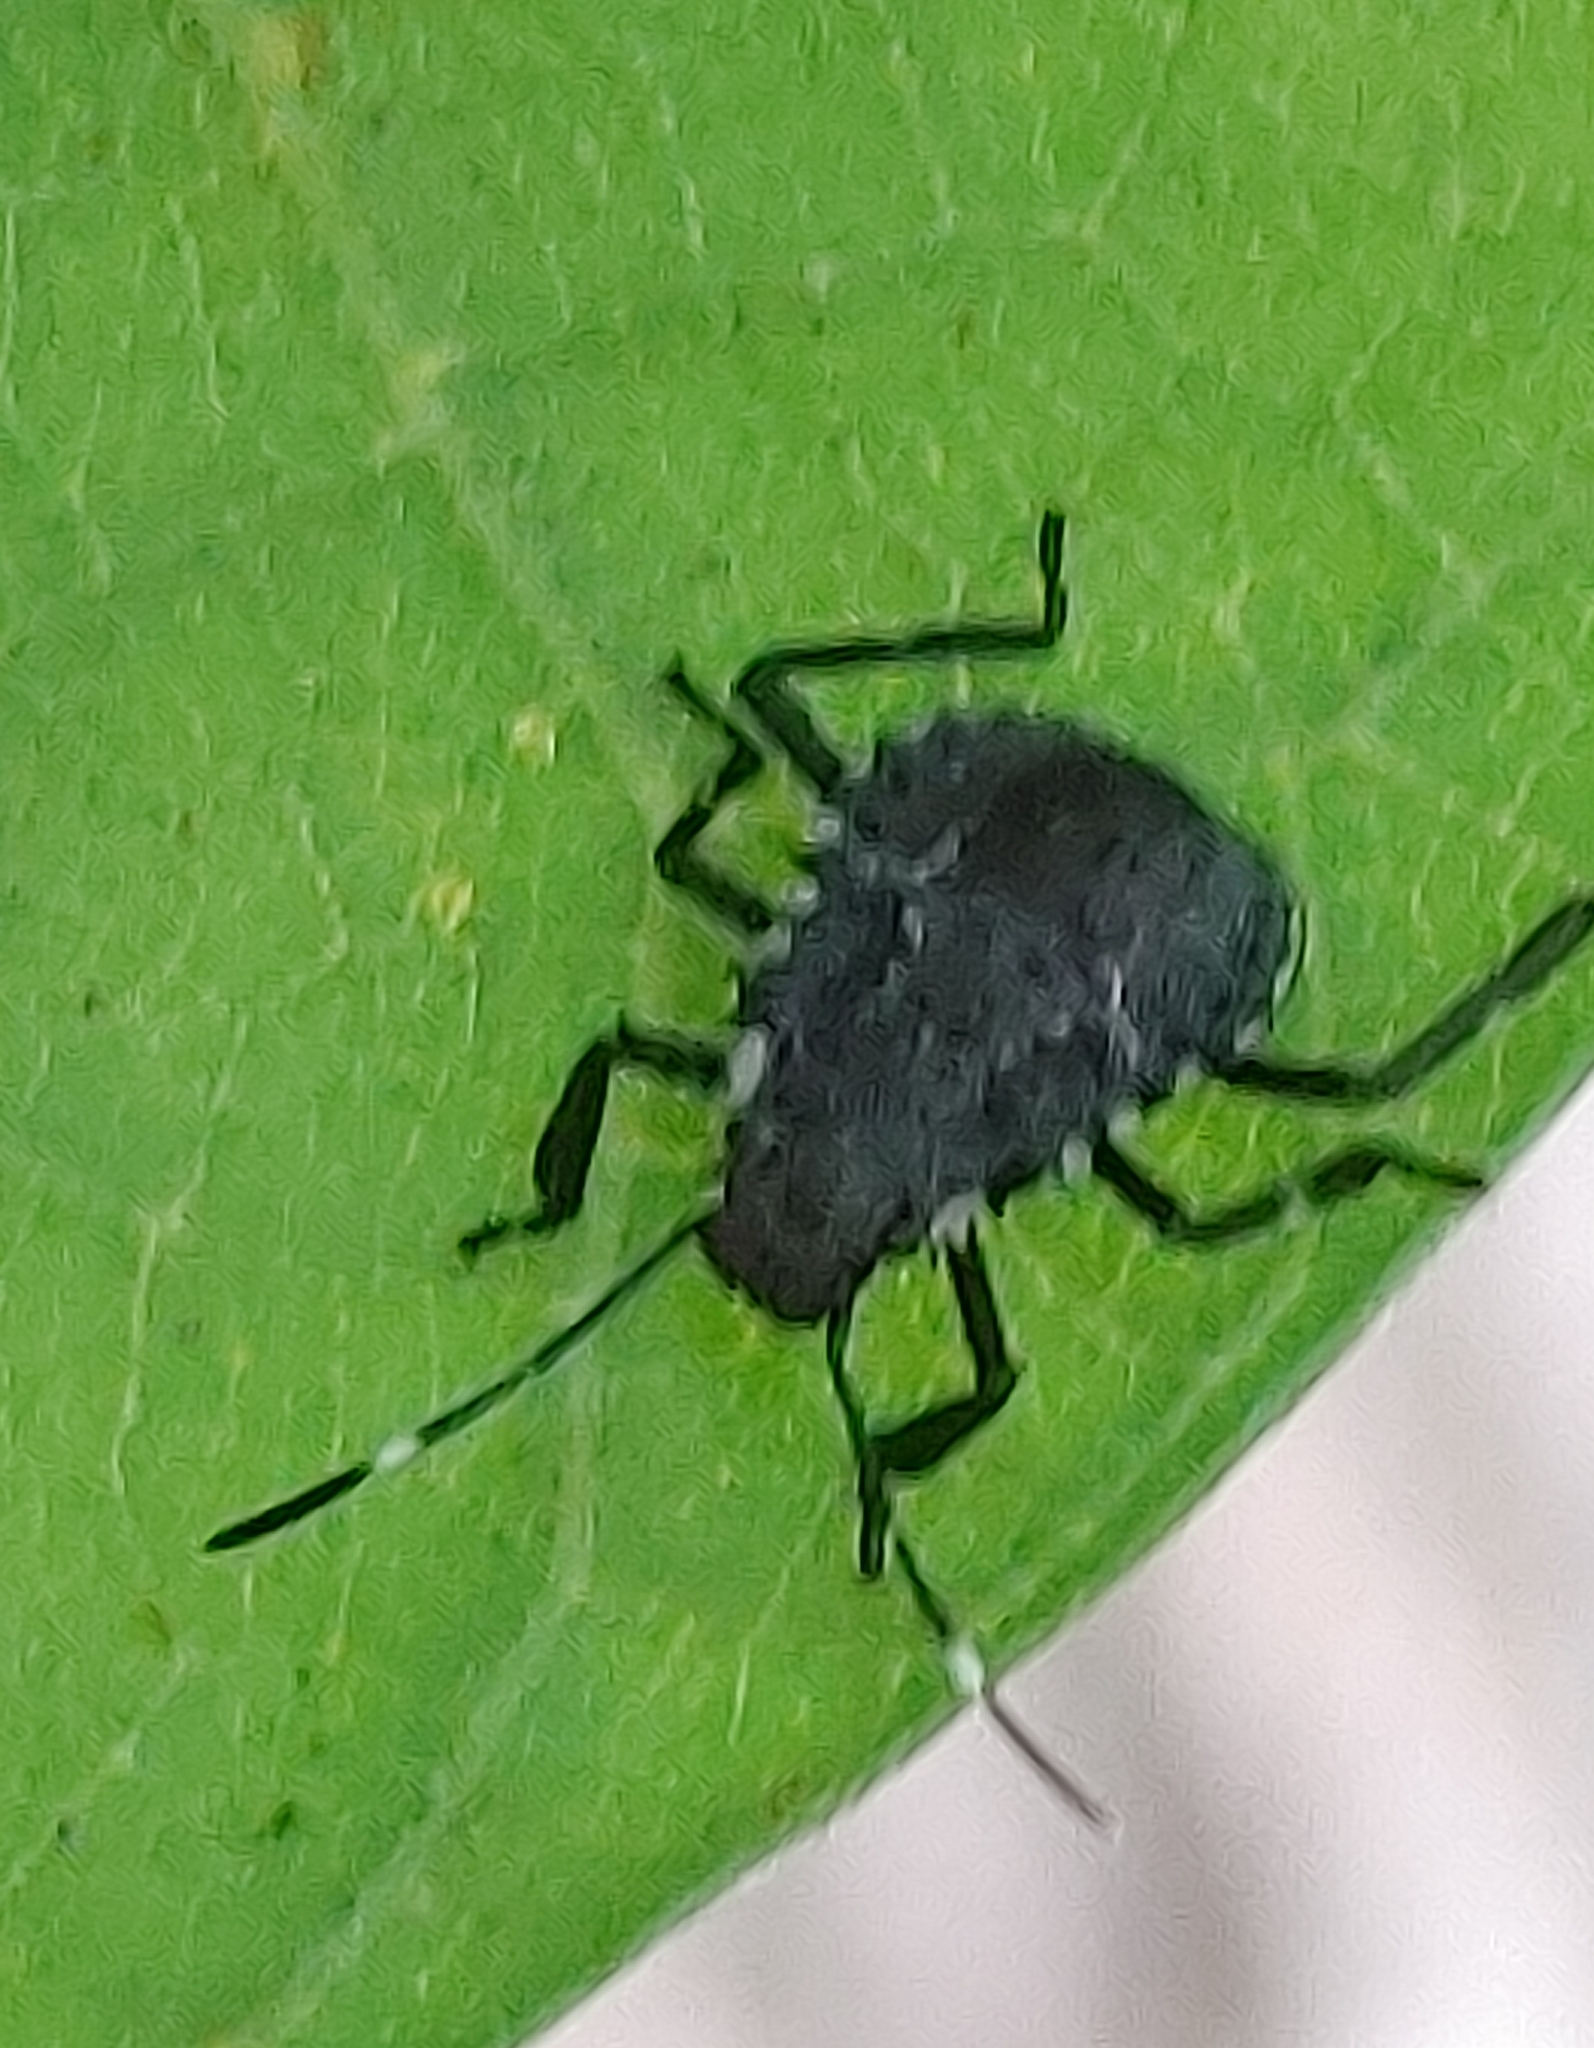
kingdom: Animalia
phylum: Arthropoda
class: Insecta
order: Hemiptera
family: Pentatomidae
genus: Halyomorpha
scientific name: Halyomorpha halys
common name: Brown marmorated stink bug
